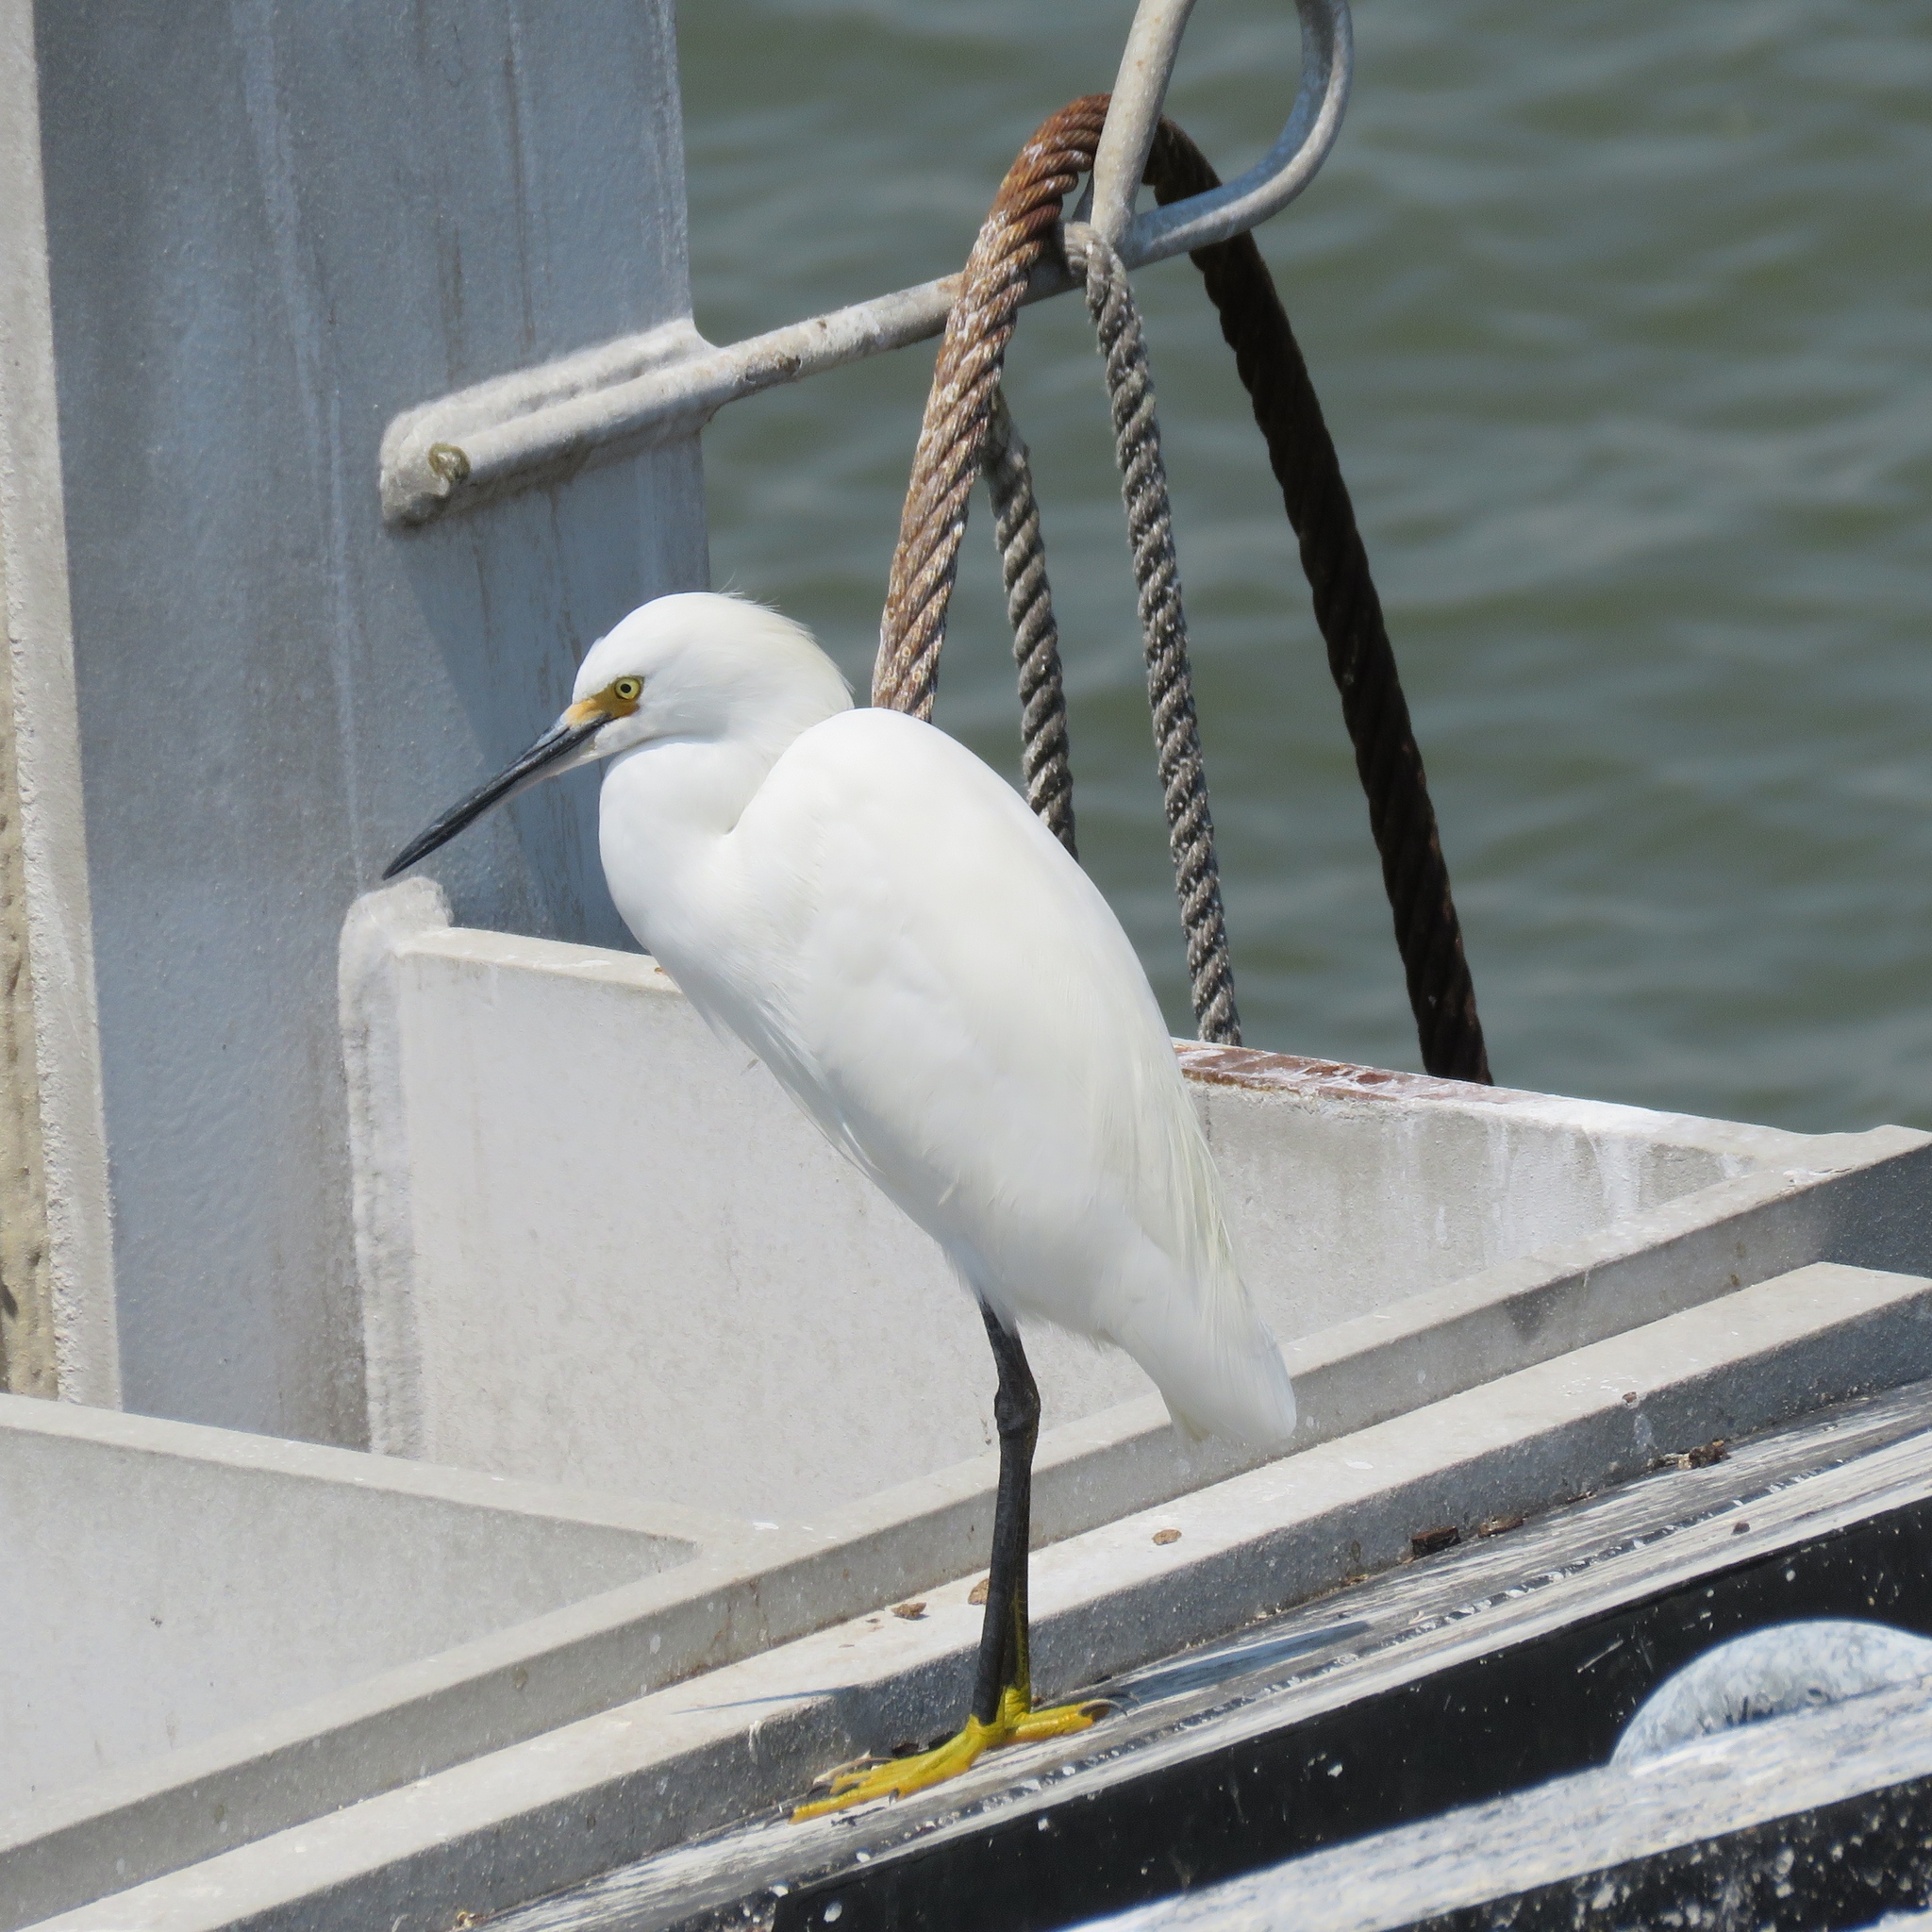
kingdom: Animalia
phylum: Chordata
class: Aves
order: Pelecaniformes
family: Ardeidae
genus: Egretta
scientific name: Egretta thula
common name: Snowy egret
